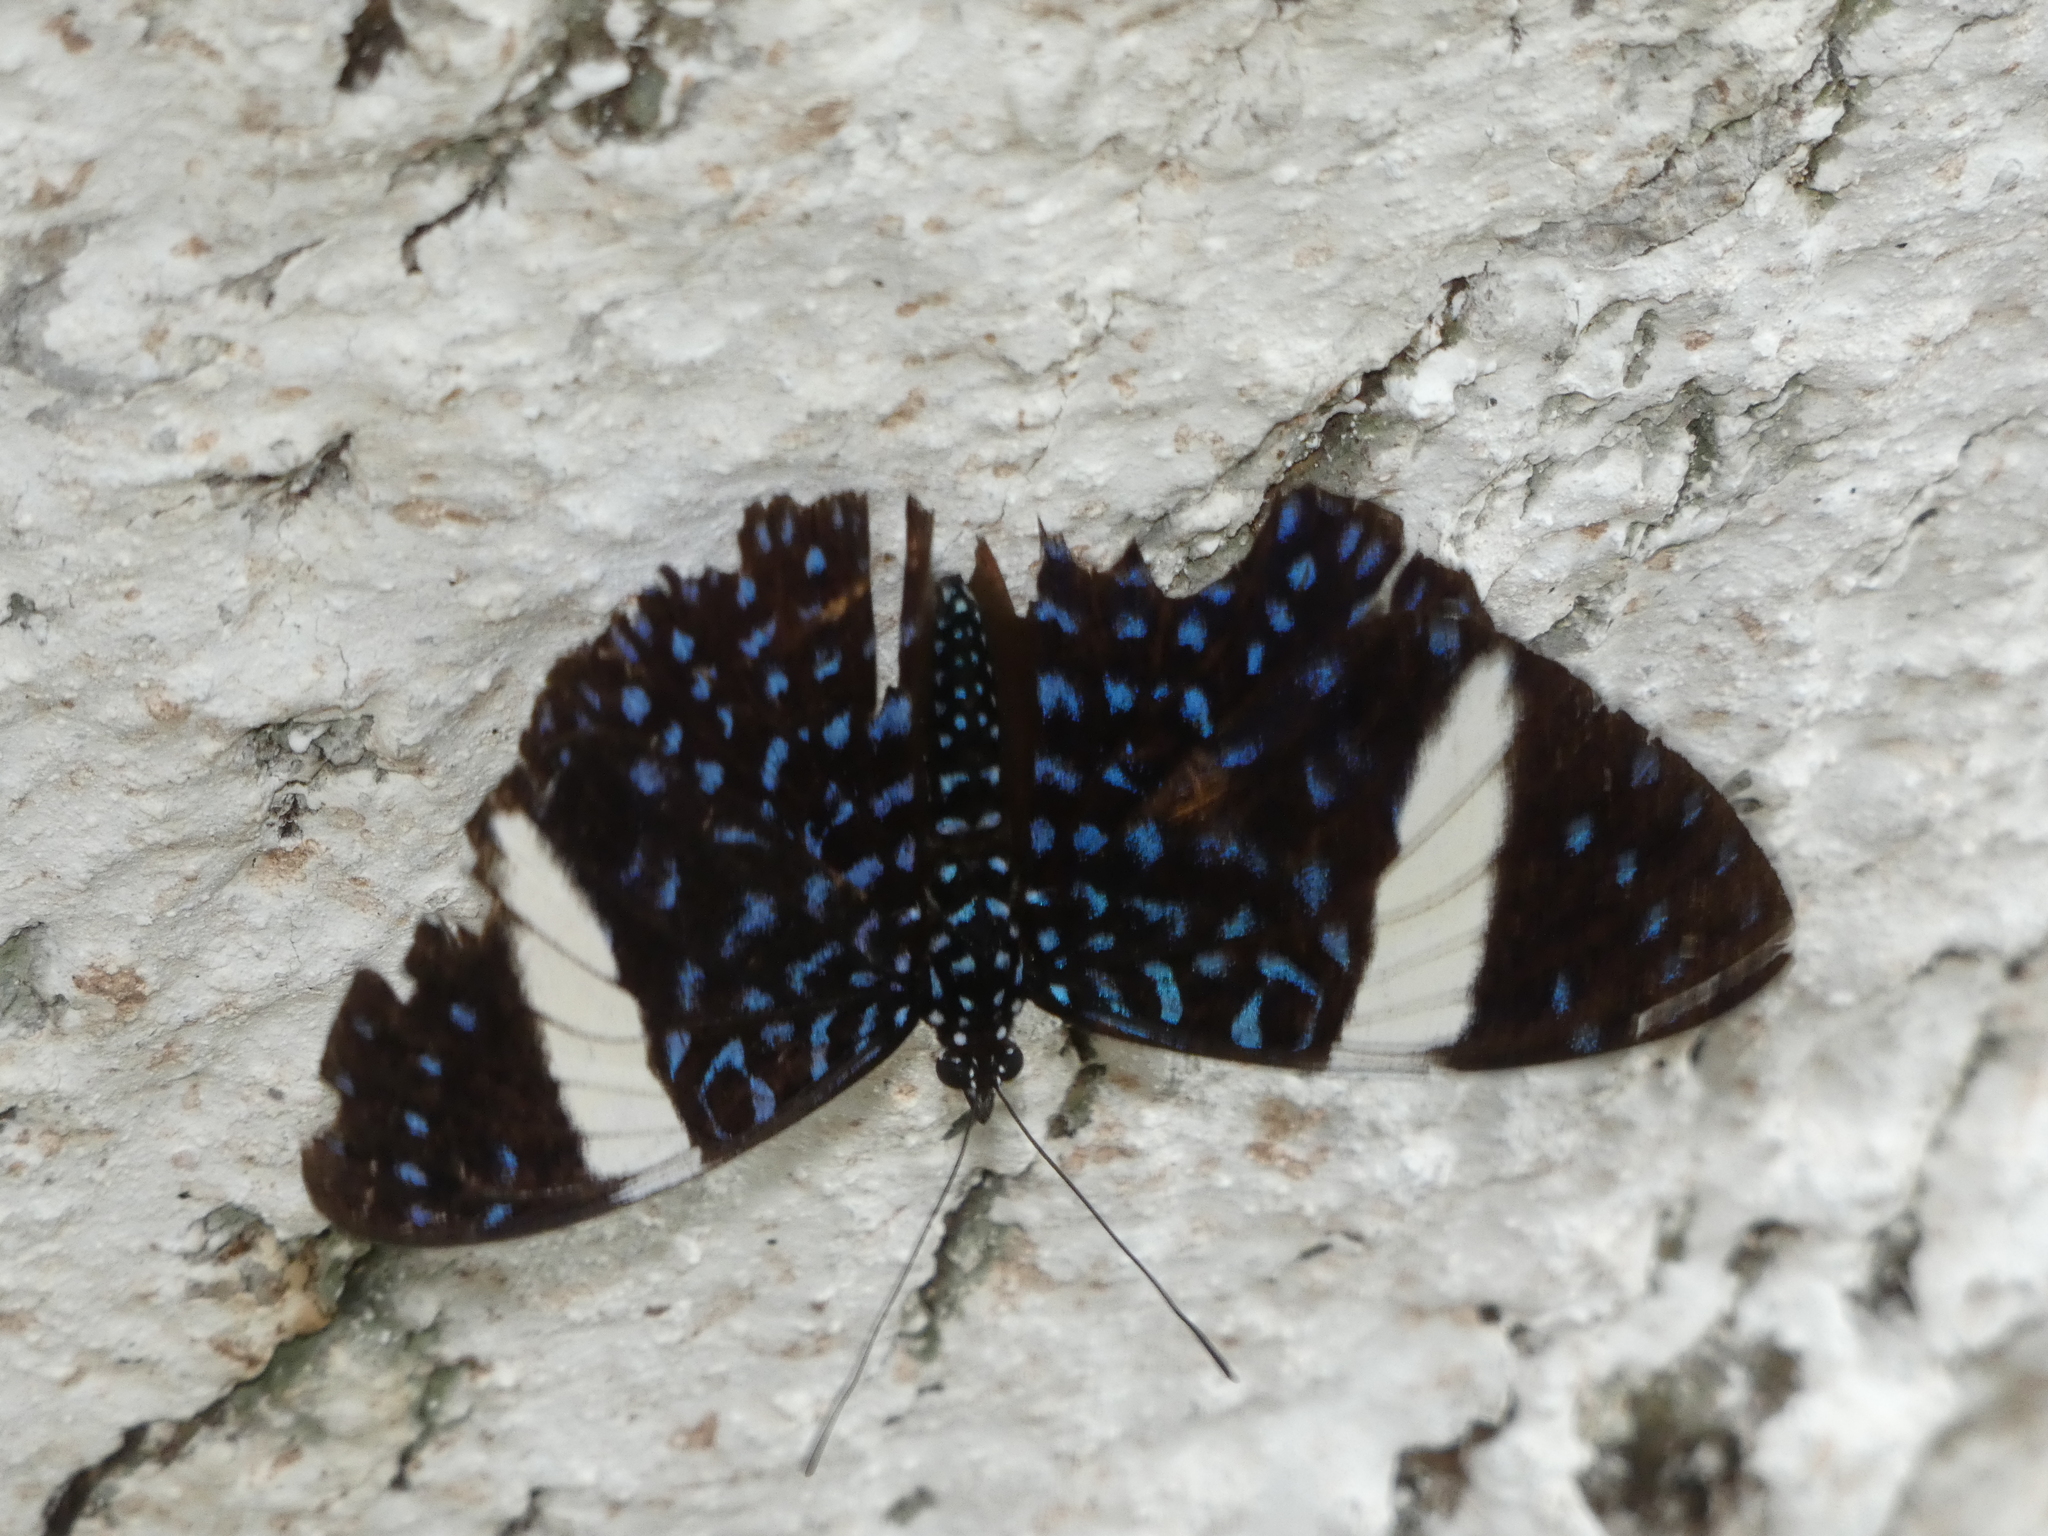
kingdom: Animalia
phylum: Arthropoda
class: Insecta
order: Lepidoptera
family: Nymphalidae
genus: Hamadryas
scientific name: Hamadryas laodamia
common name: Starry night cracker
